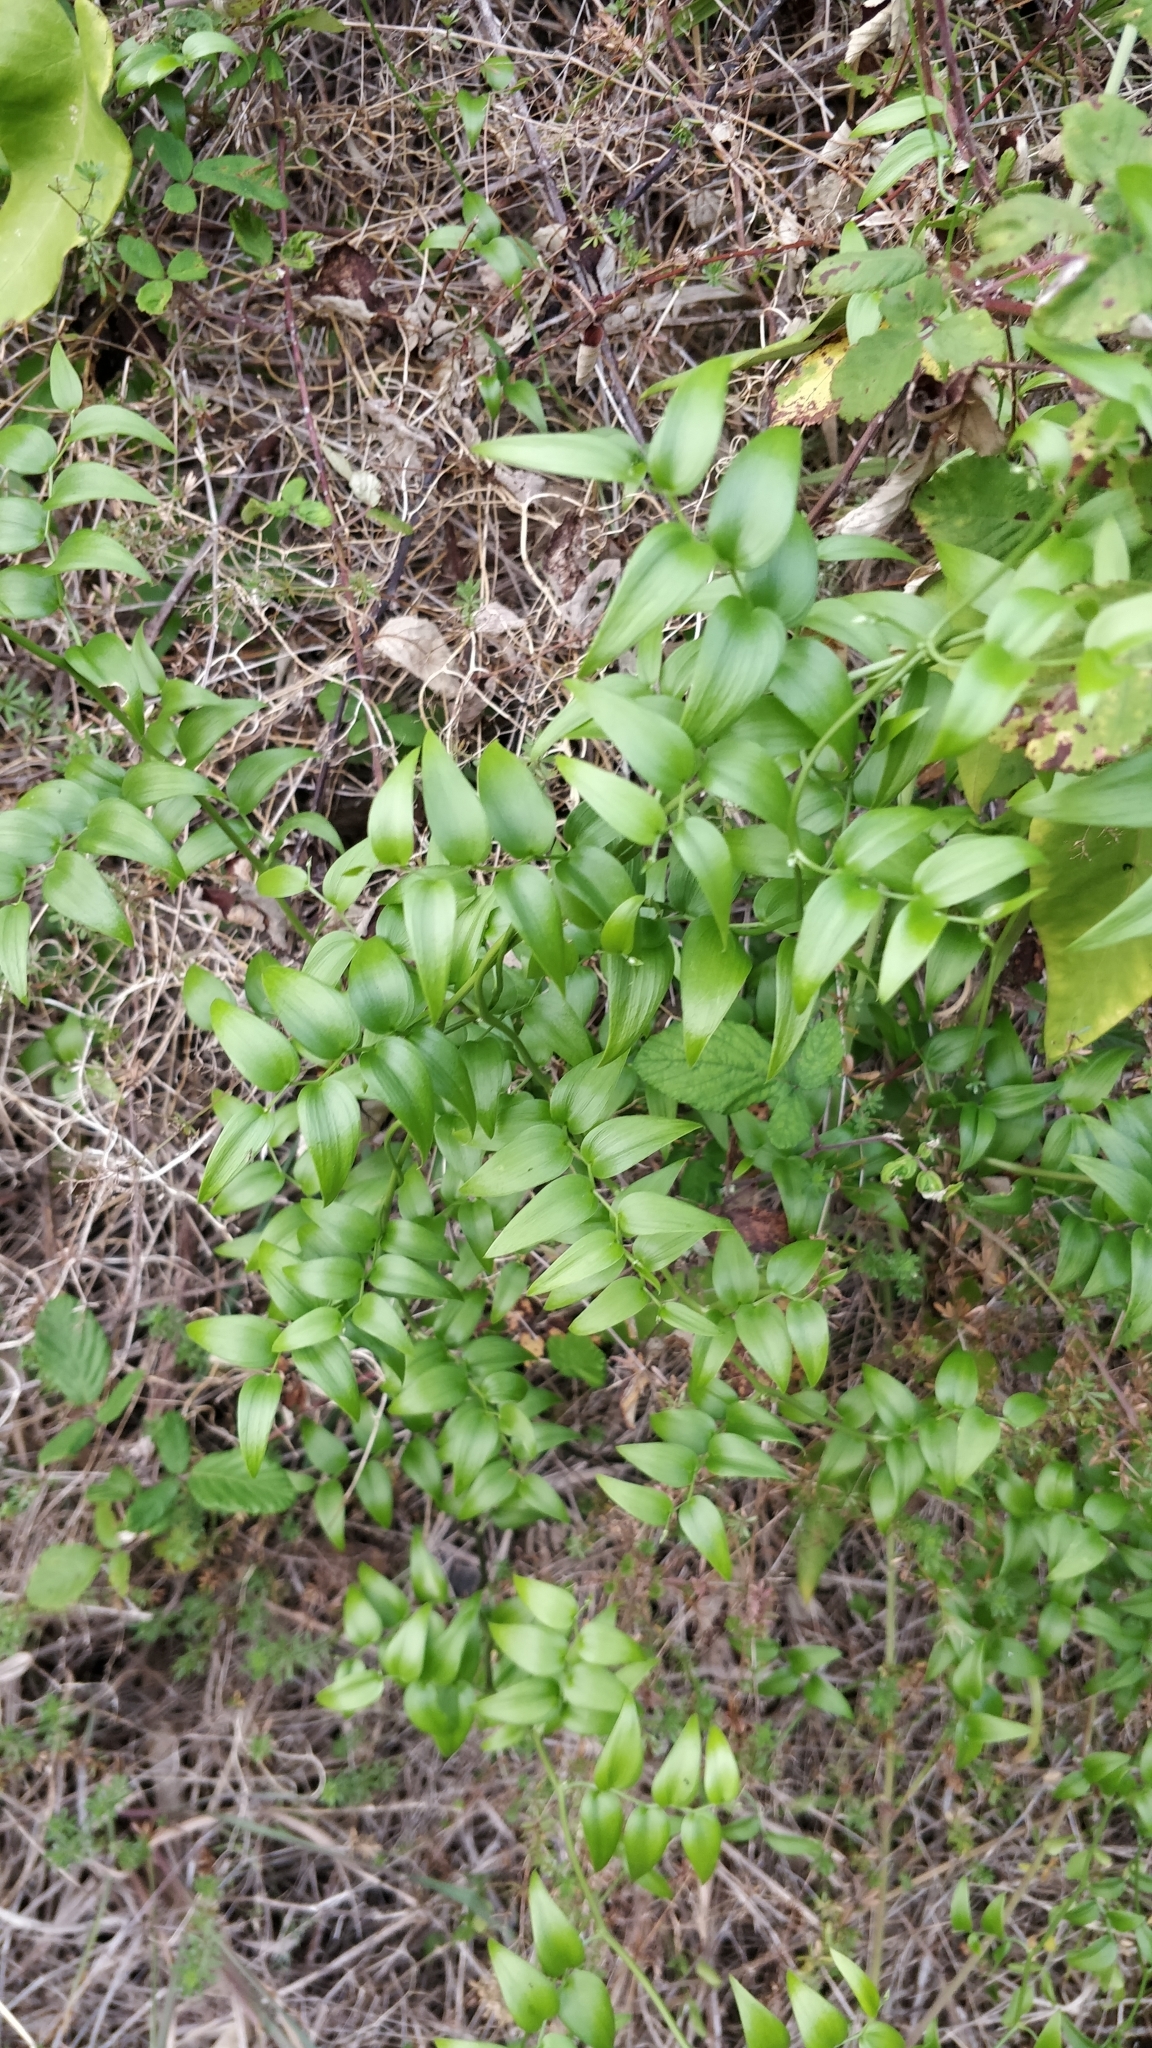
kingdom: Plantae
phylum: Tracheophyta
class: Liliopsida
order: Asparagales
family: Asparagaceae
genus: Asparagus
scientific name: Asparagus asparagoides
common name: African asparagus fern
